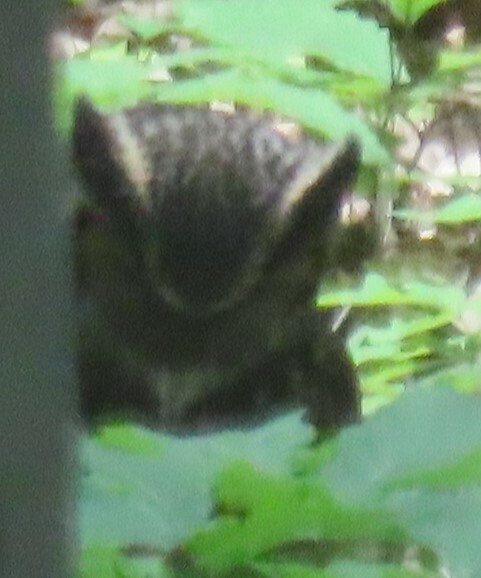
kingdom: Animalia
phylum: Chordata
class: Aves
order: Strigiformes
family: Strigidae
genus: Bubo
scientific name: Bubo virginianus
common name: Great horned owl
